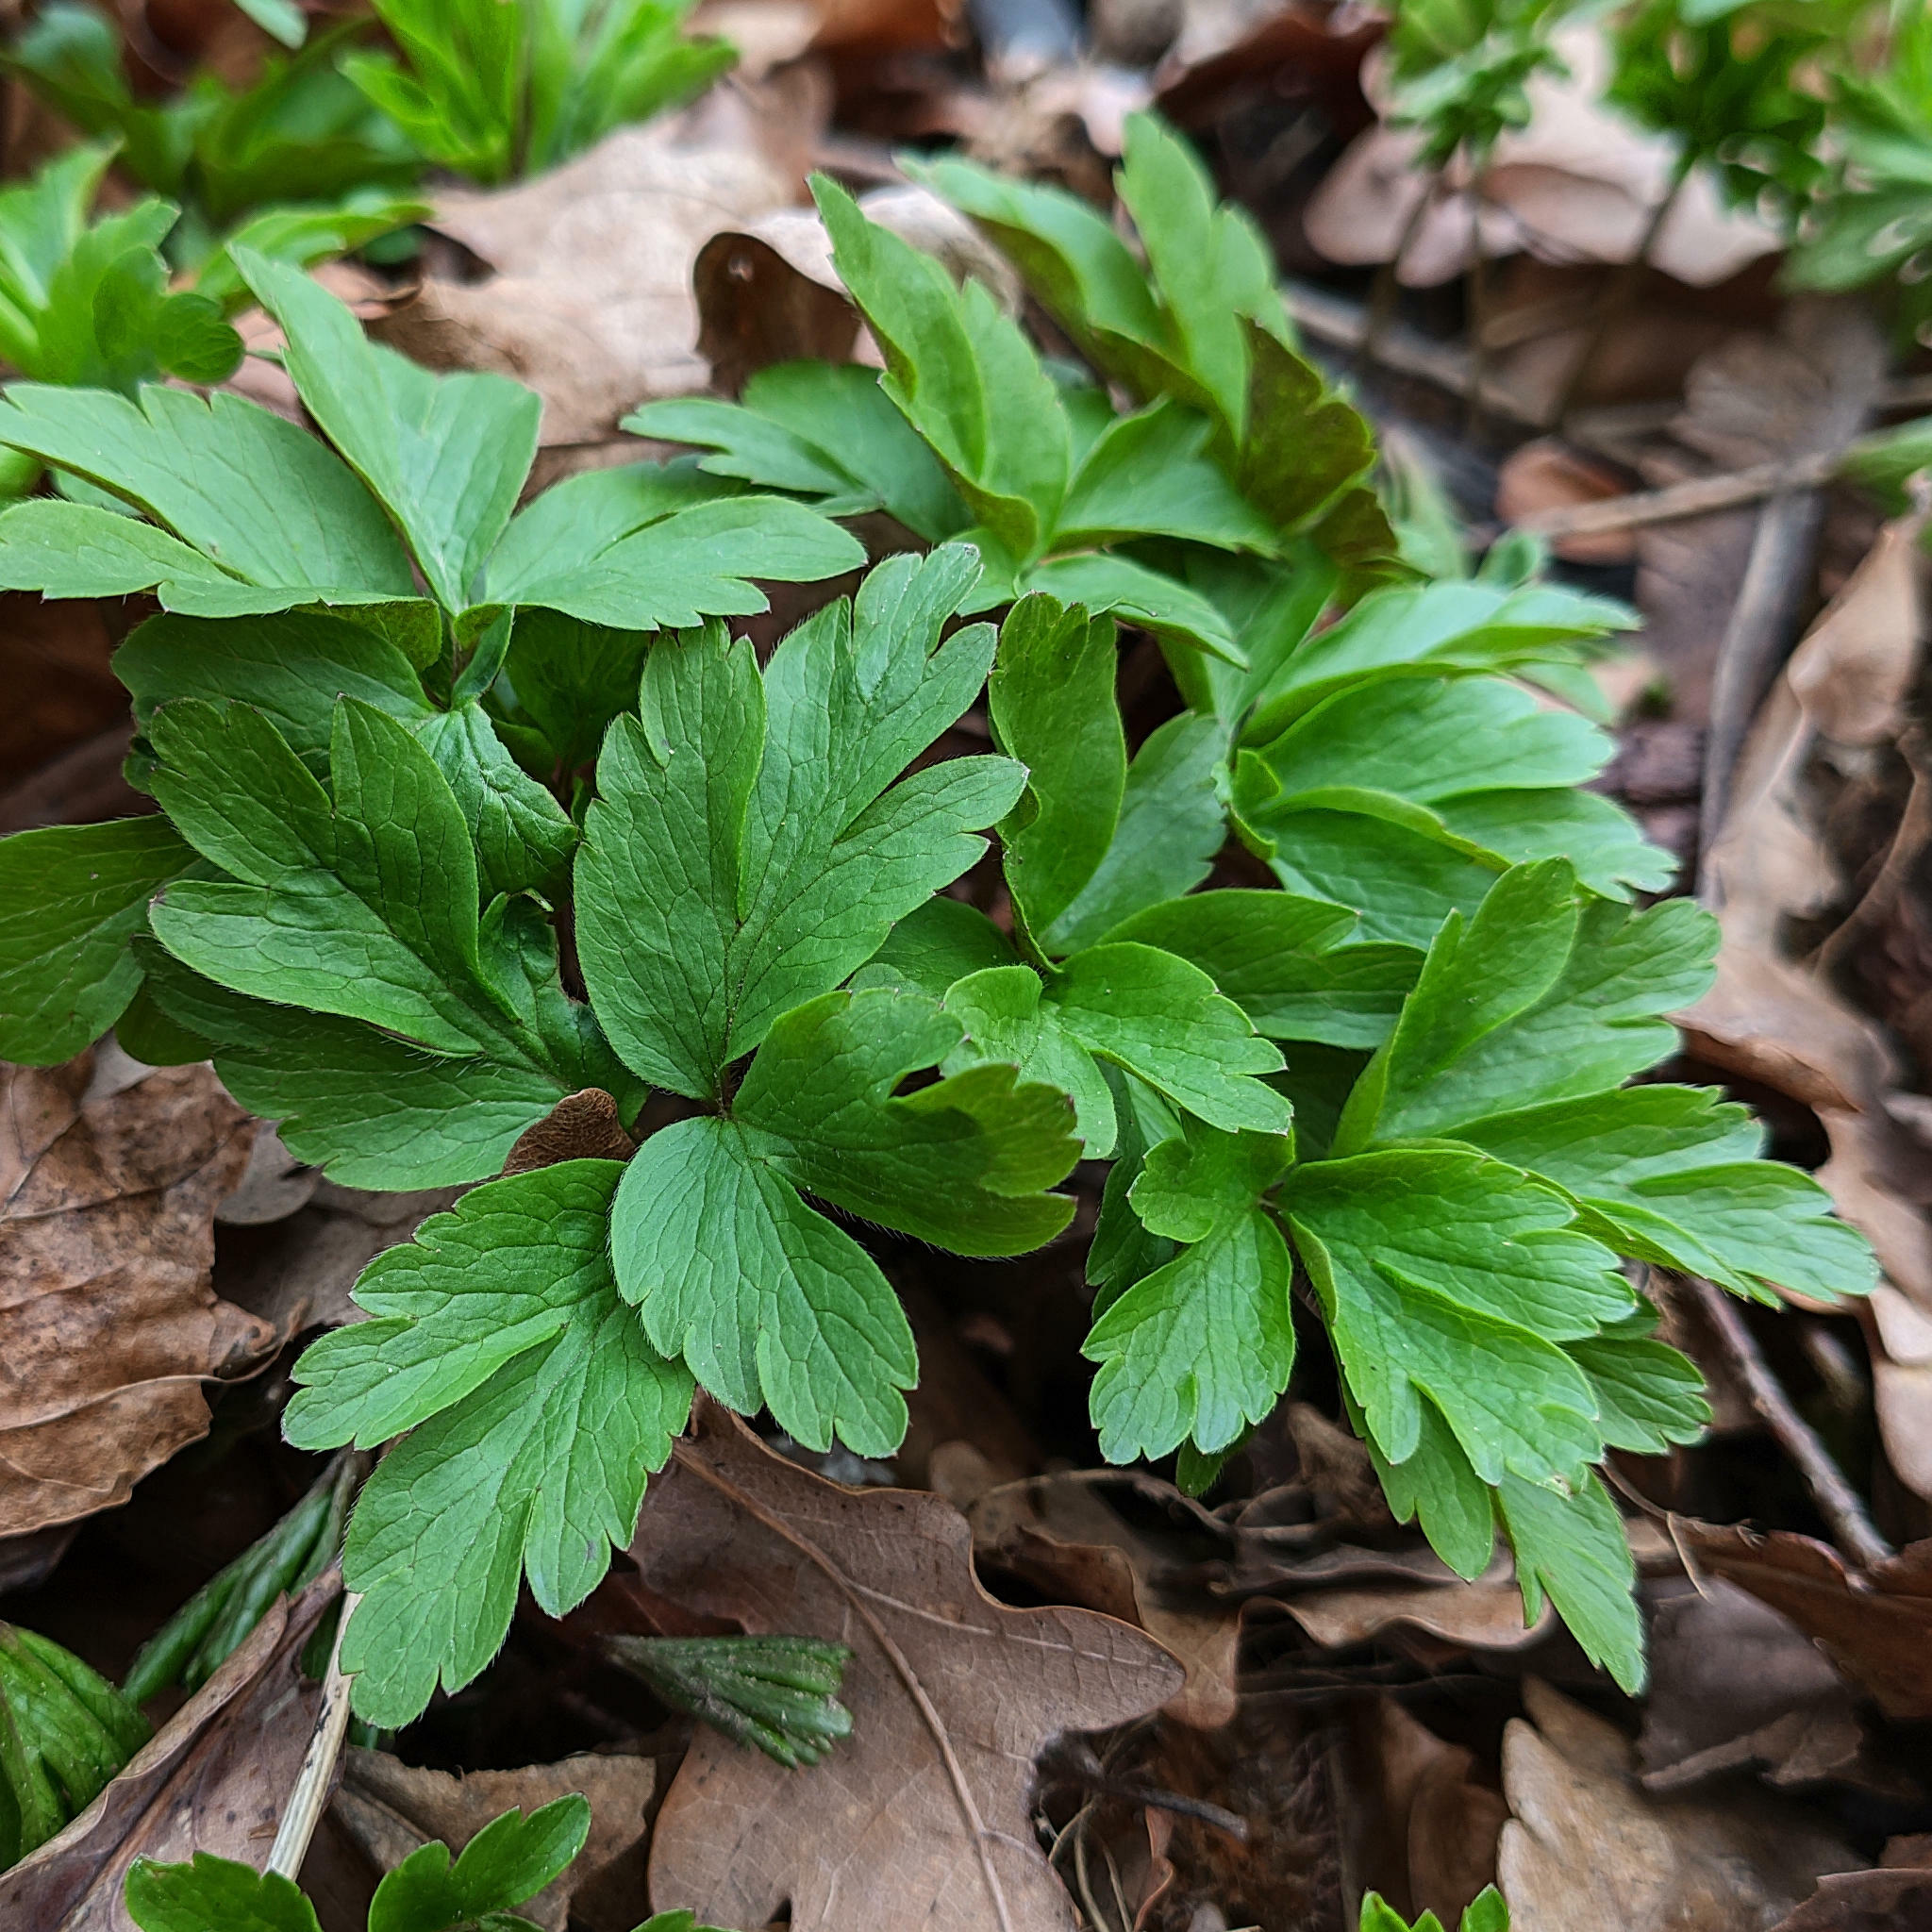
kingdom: Plantae
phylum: Tracheophyta
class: Magnoliopsida
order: Ranunculales
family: Ranunculaceae
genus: Anemone
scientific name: Anemone nemorosa
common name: Wood anemone
